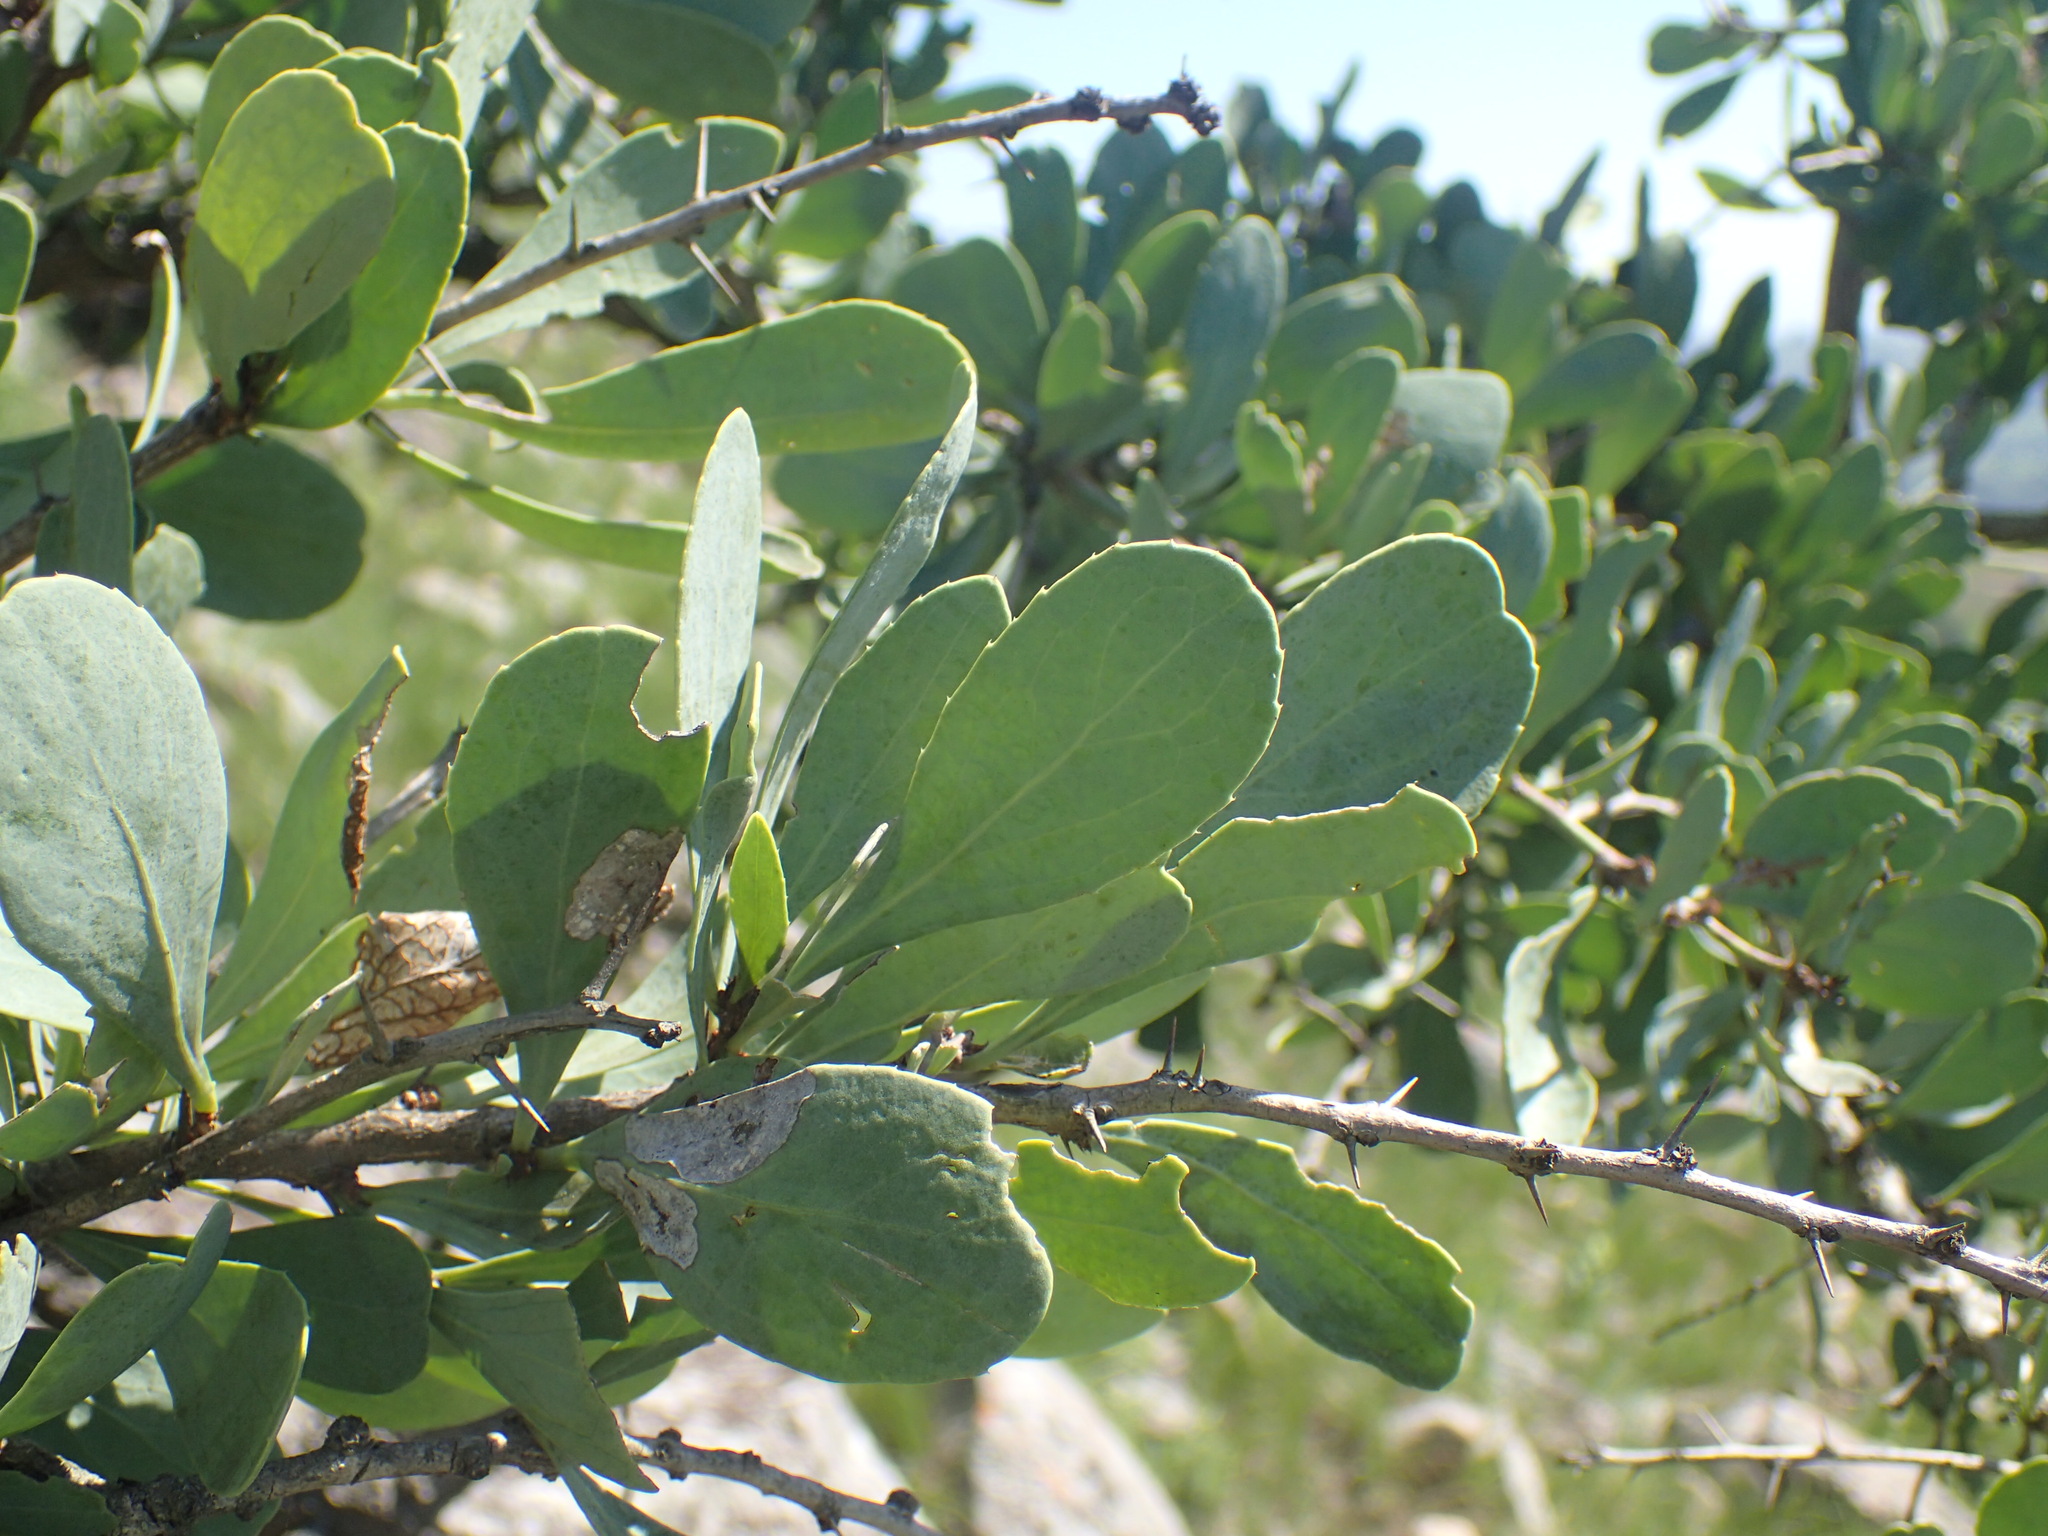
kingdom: Plantae
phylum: Tracheophyta
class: Magnoliopsida
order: Celastrales
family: Celastraceae
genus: Gymnosporia
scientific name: Gymnosporia glaucophylla
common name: Blue spike-thorn
